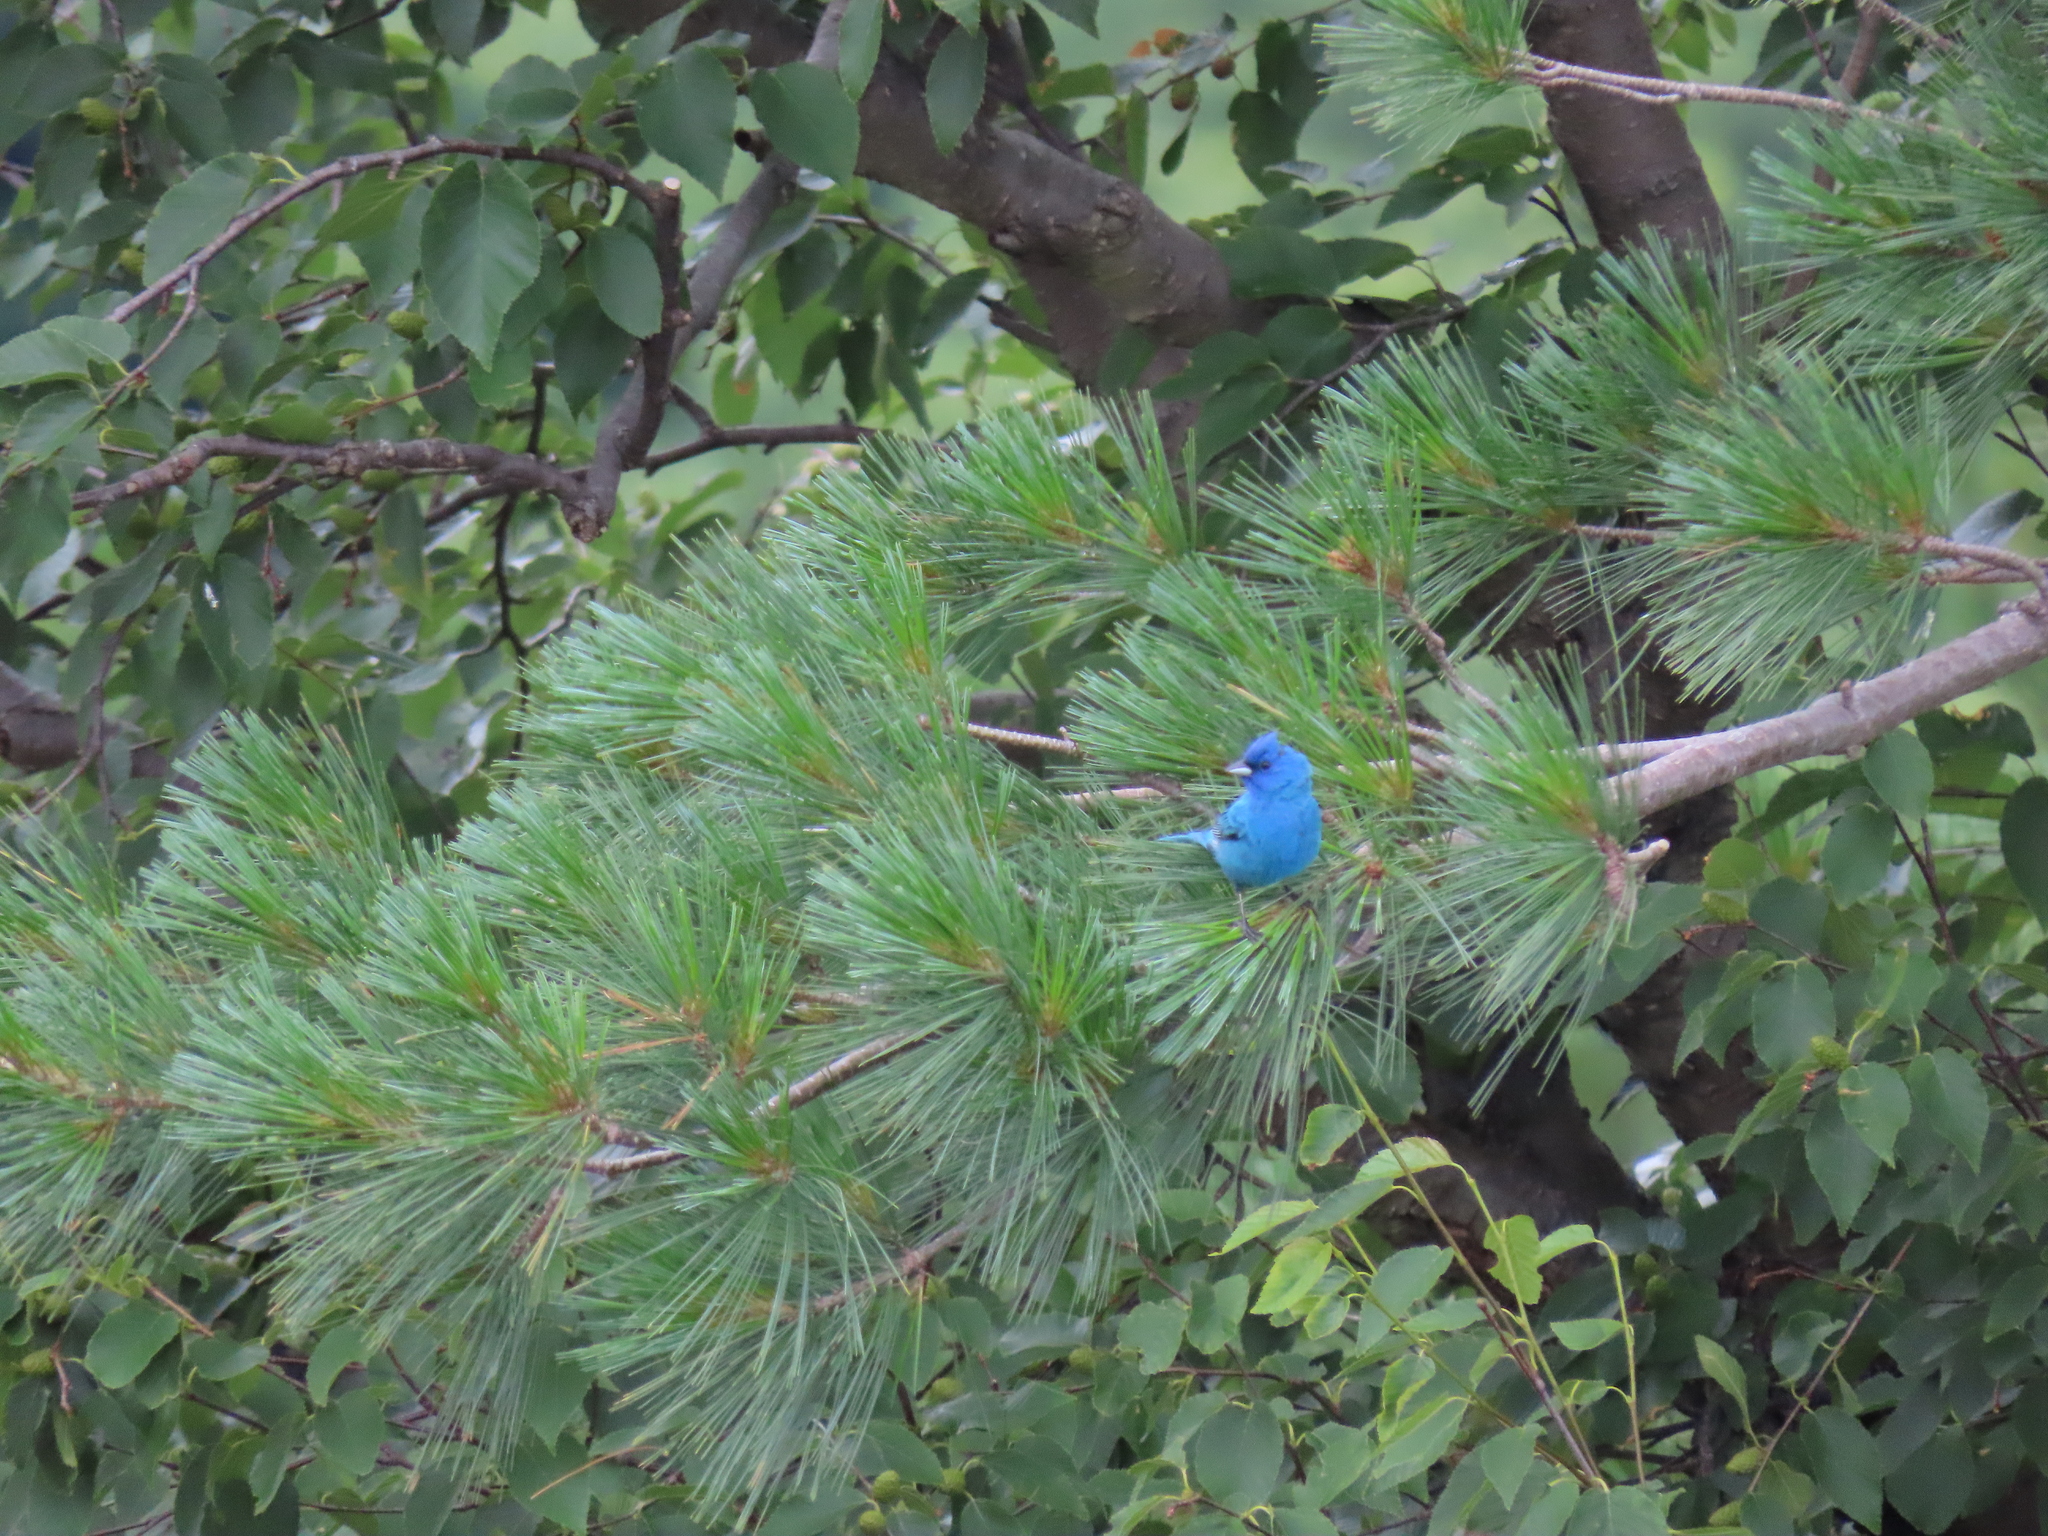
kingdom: Animalia
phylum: Chordata
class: Aves
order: Passeriformes
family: Cardinalidae
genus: Passerina
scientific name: Passerina cyanea
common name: Indigo bunting
